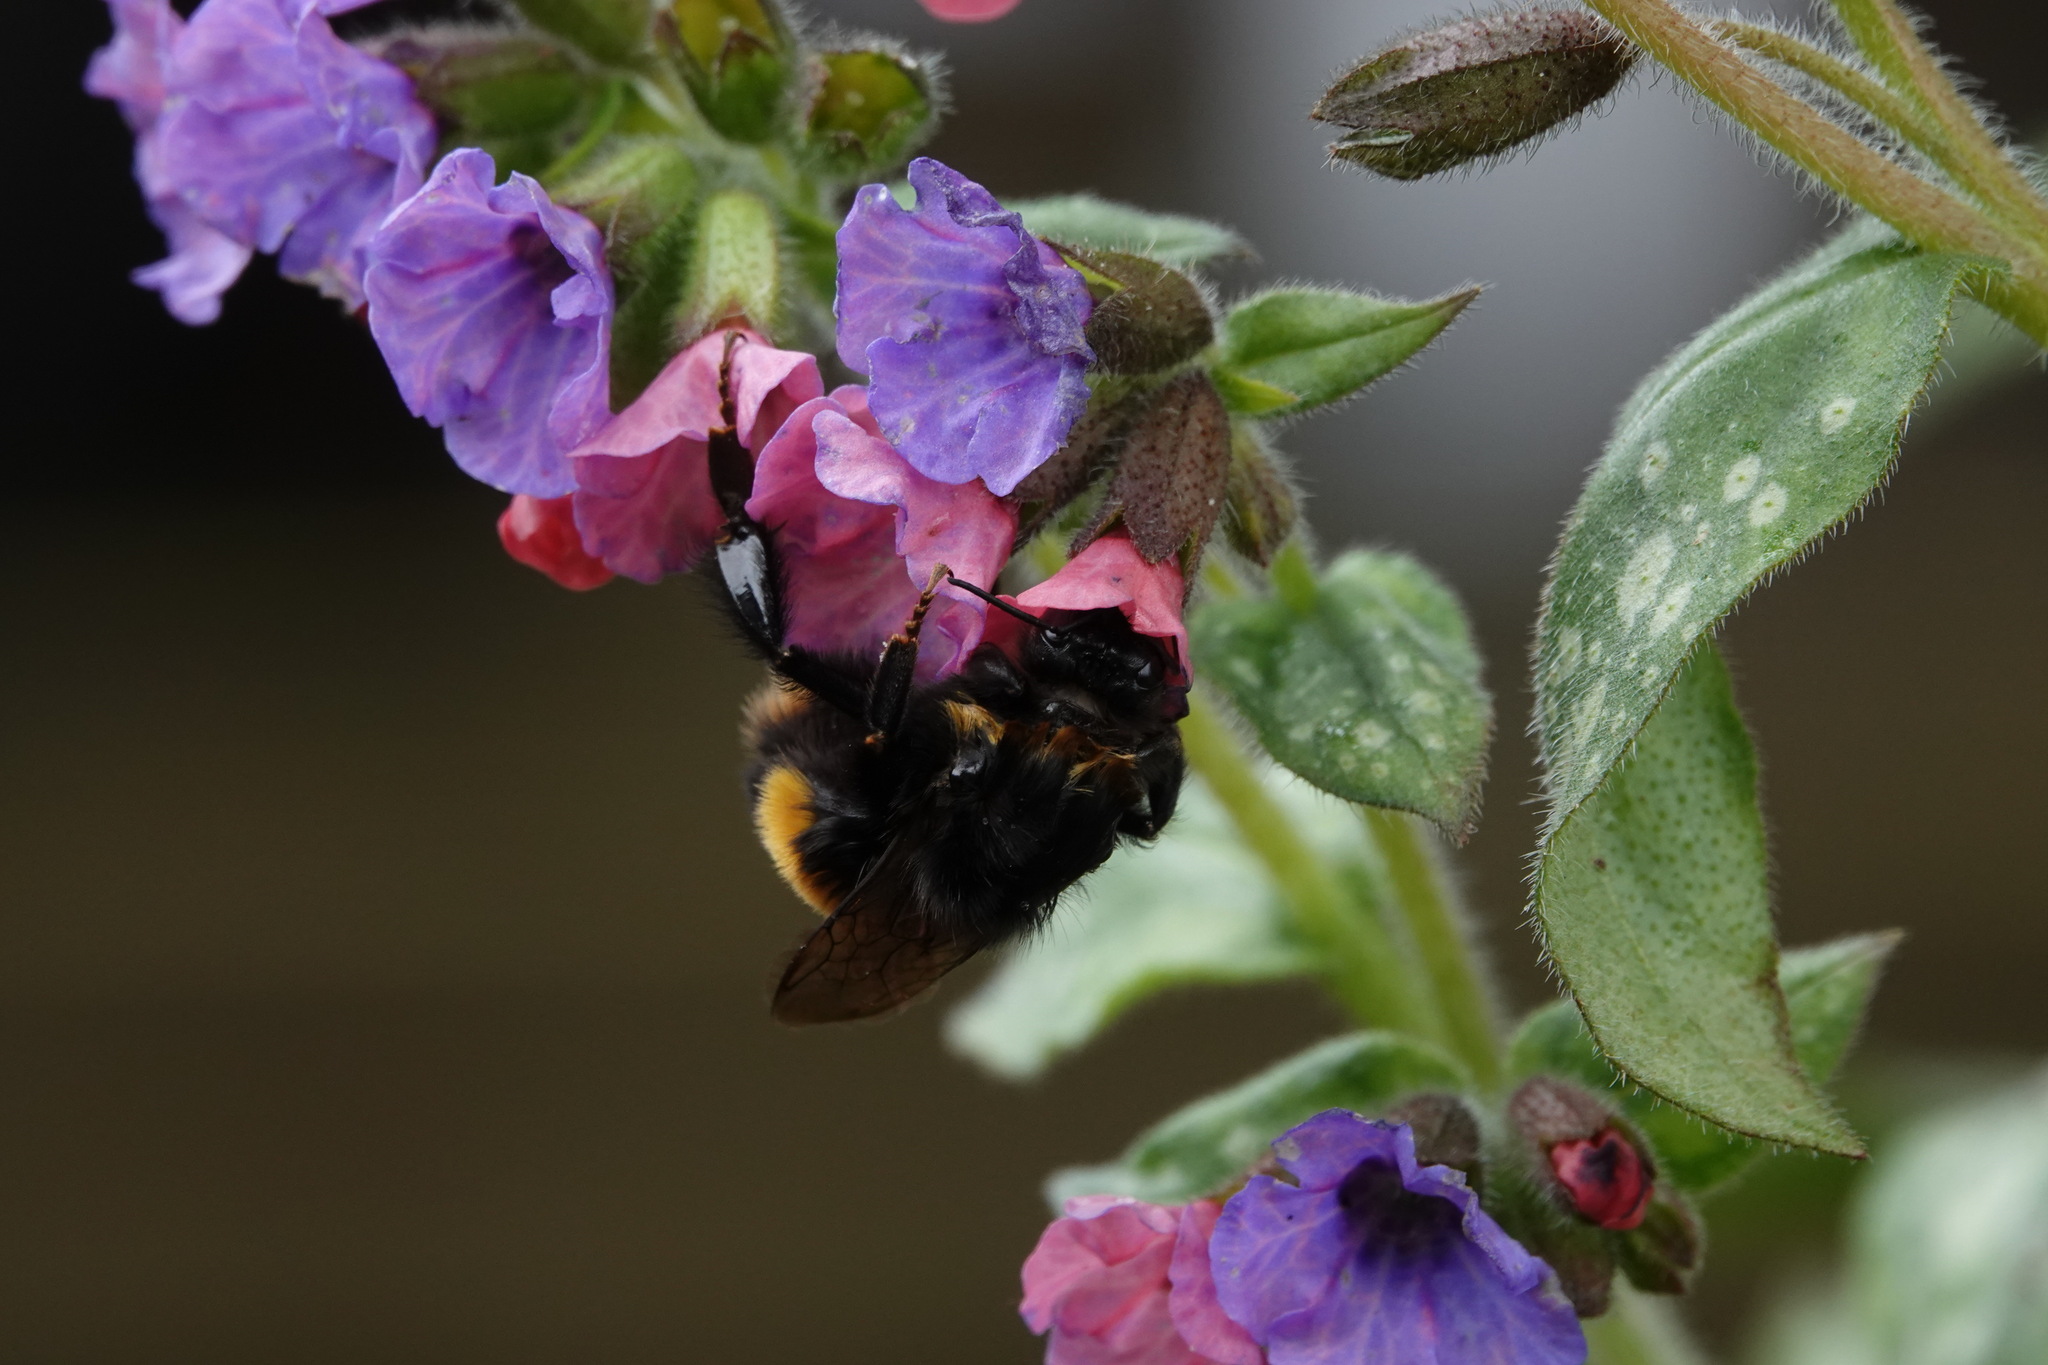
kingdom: Animalia
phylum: Arthropoda
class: Insecta
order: Hymenoptera
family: Apidae
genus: Bombus
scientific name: Bombus terrestris
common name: Buff-tailed bumblebee
